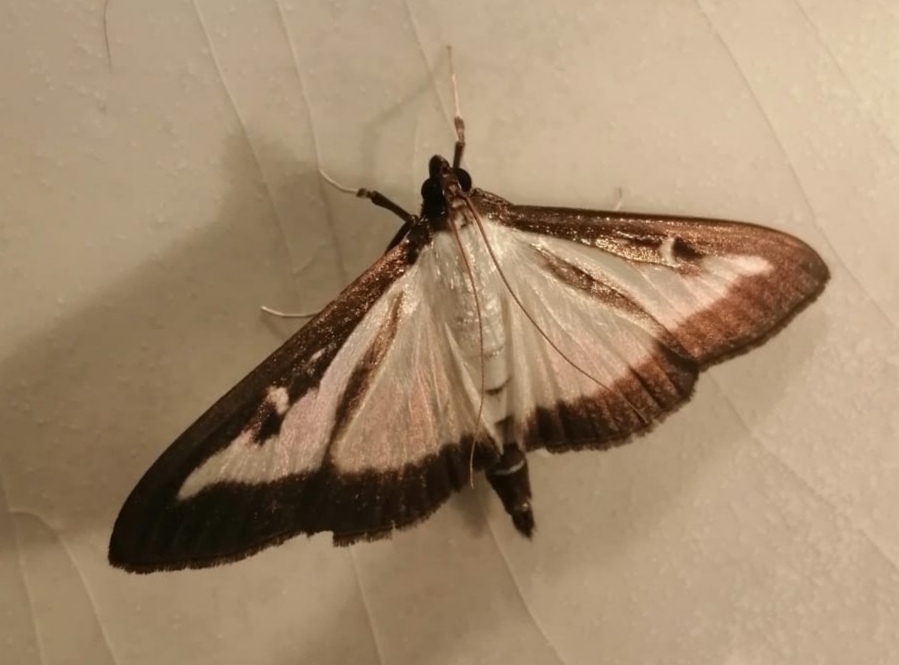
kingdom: Animalia
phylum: Arthropoda
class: Insecta
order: Lepidoptera
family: Crambidae
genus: Cydalima
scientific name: Cydalima perspectalis
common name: Box tree moth
